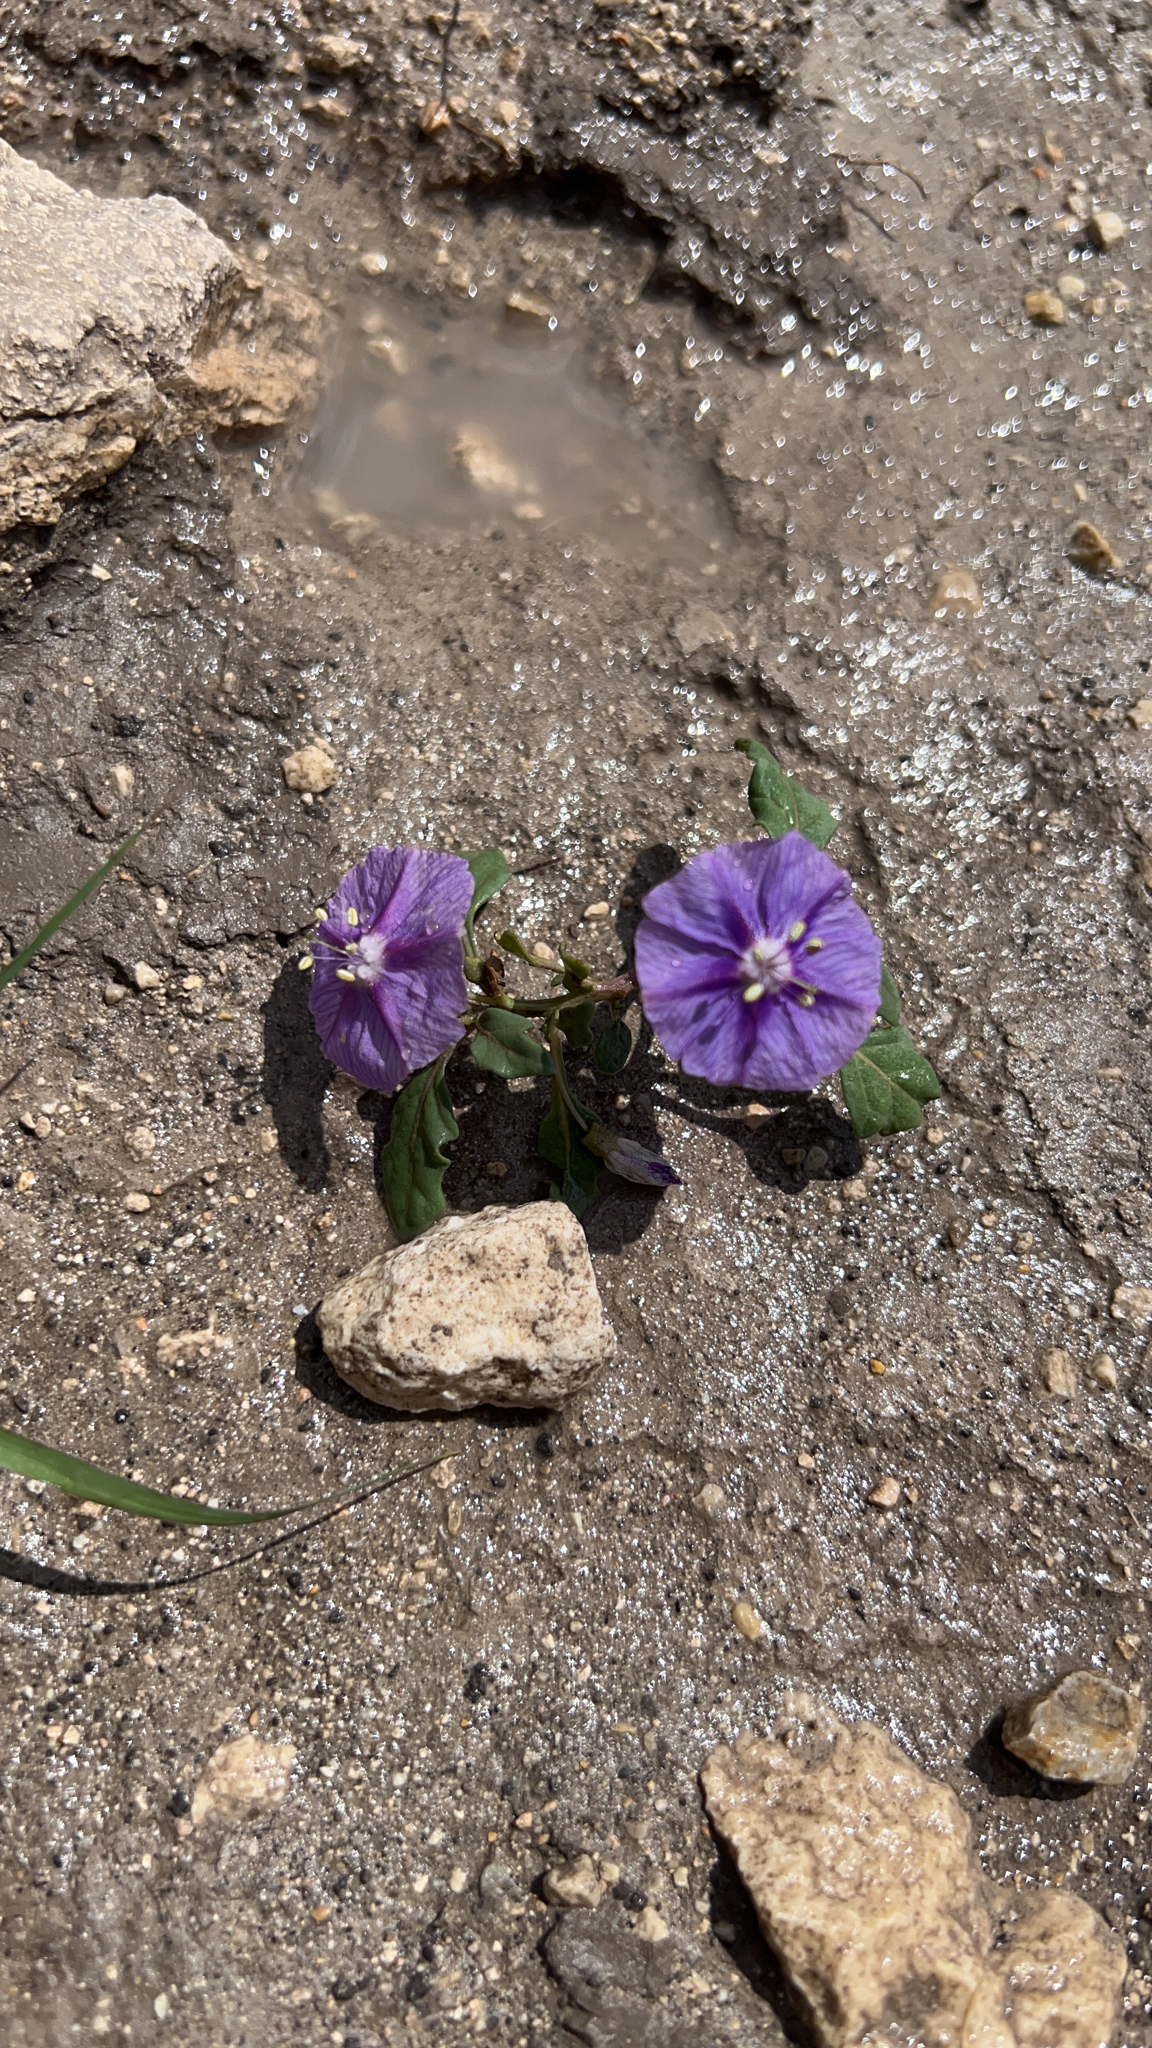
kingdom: Plantae
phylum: Tracheophyta
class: Magnoliopsida
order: Solanales
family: Solanaceae
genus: Quincula
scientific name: Quincula lobata
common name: Purple-ground-cherry
